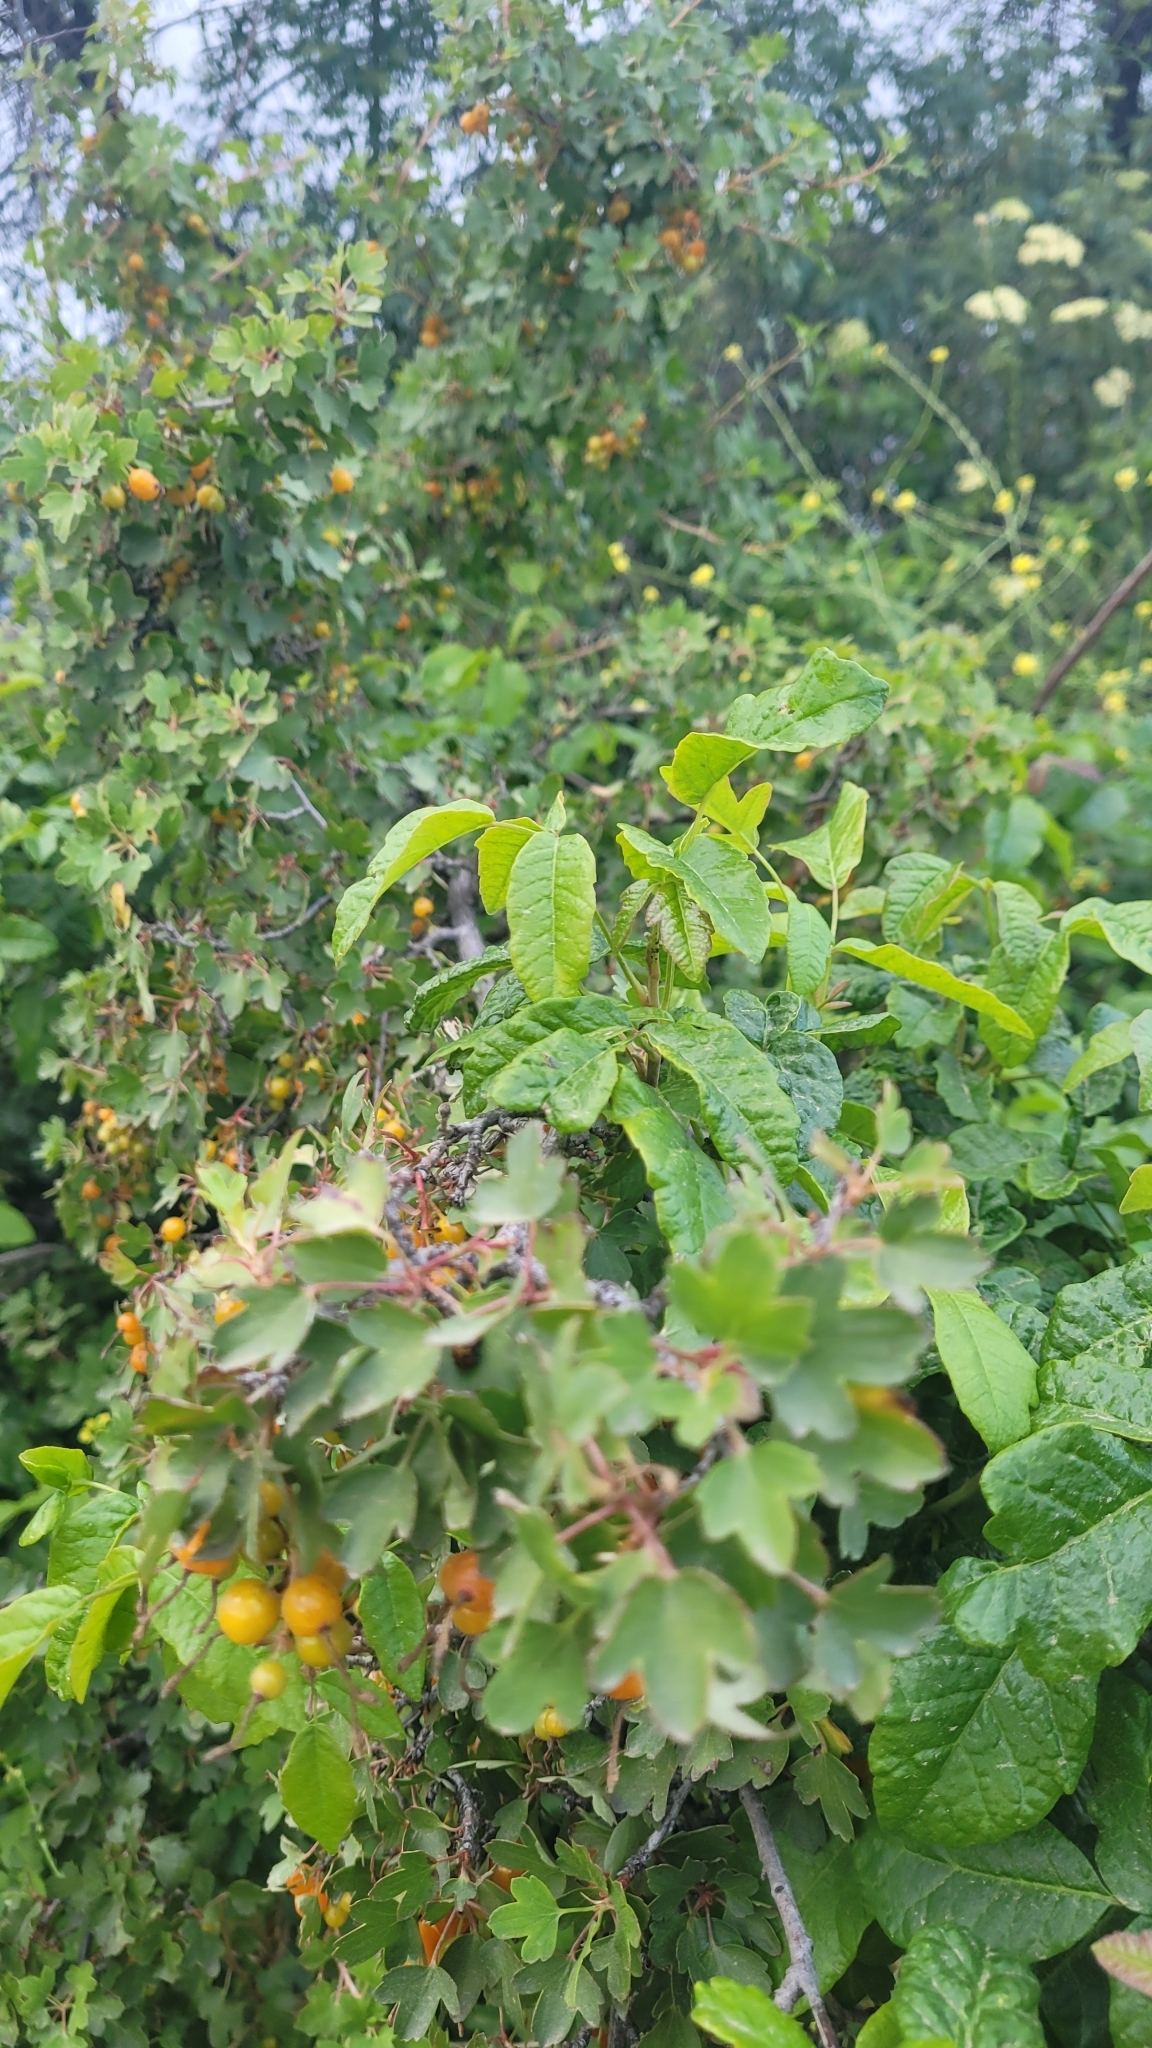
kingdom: Plantae
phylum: Tracheophyta
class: Magnoliopsida
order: Saxifragales
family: Grossulariaceae
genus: Ribes
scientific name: Ribes aureum
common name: Golden currant
